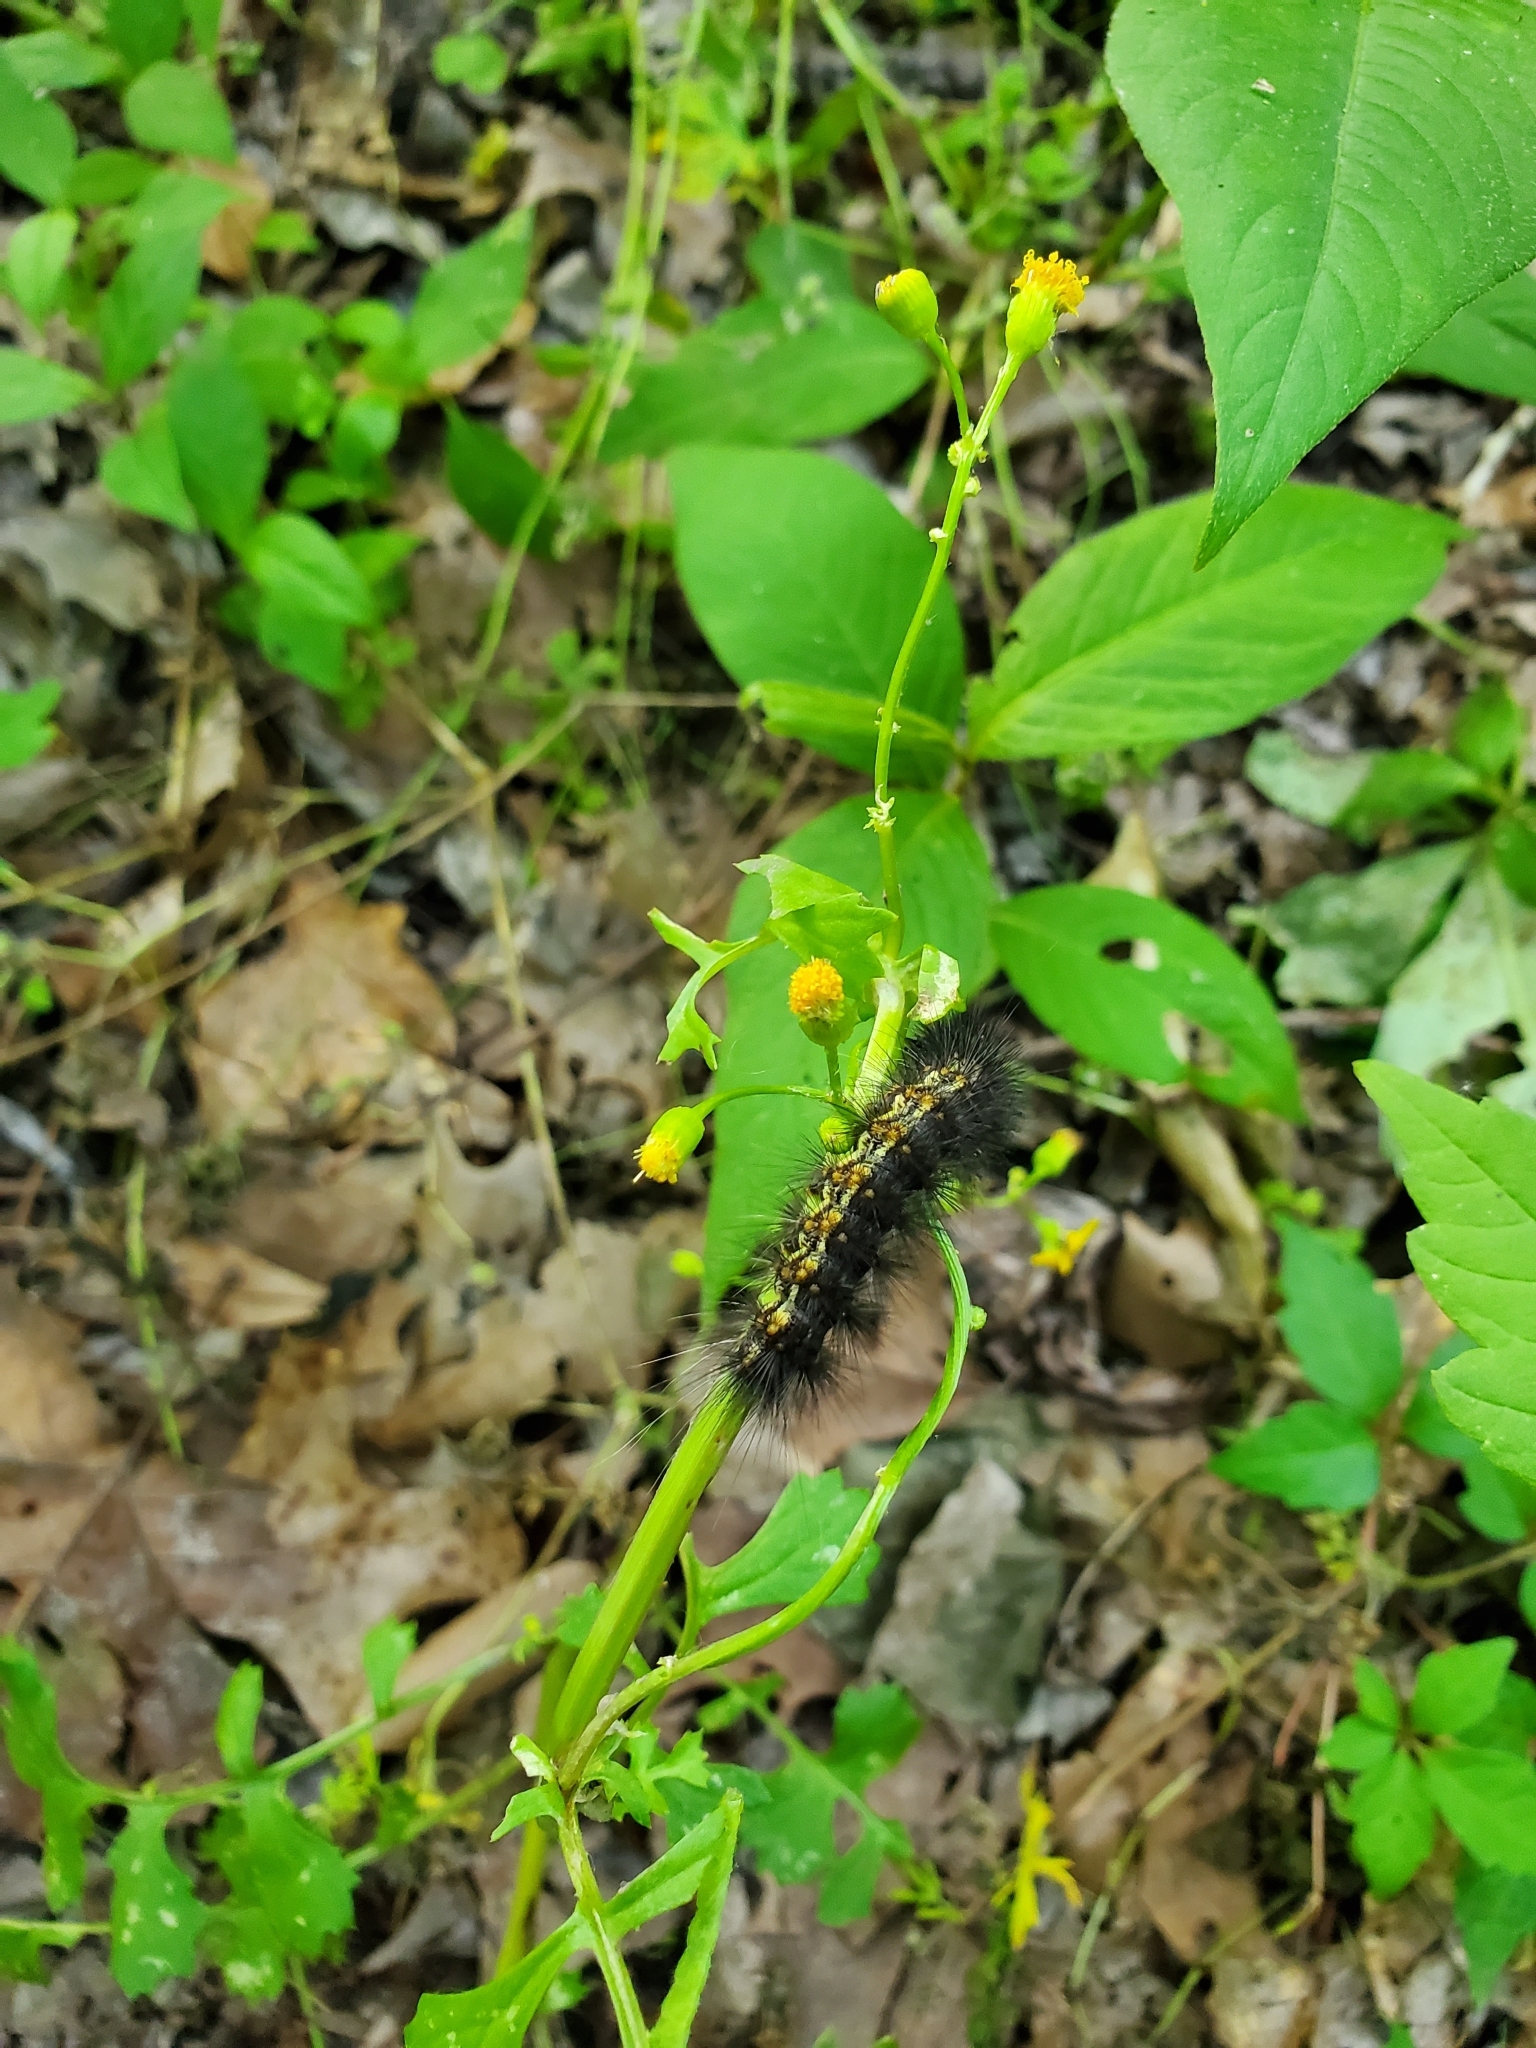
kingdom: Animalia
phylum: Arthropoda
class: Insecta
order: Lepidoptera
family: Erebidae
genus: Estigmene
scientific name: Estigmene acrea
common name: Salt marsh moth
